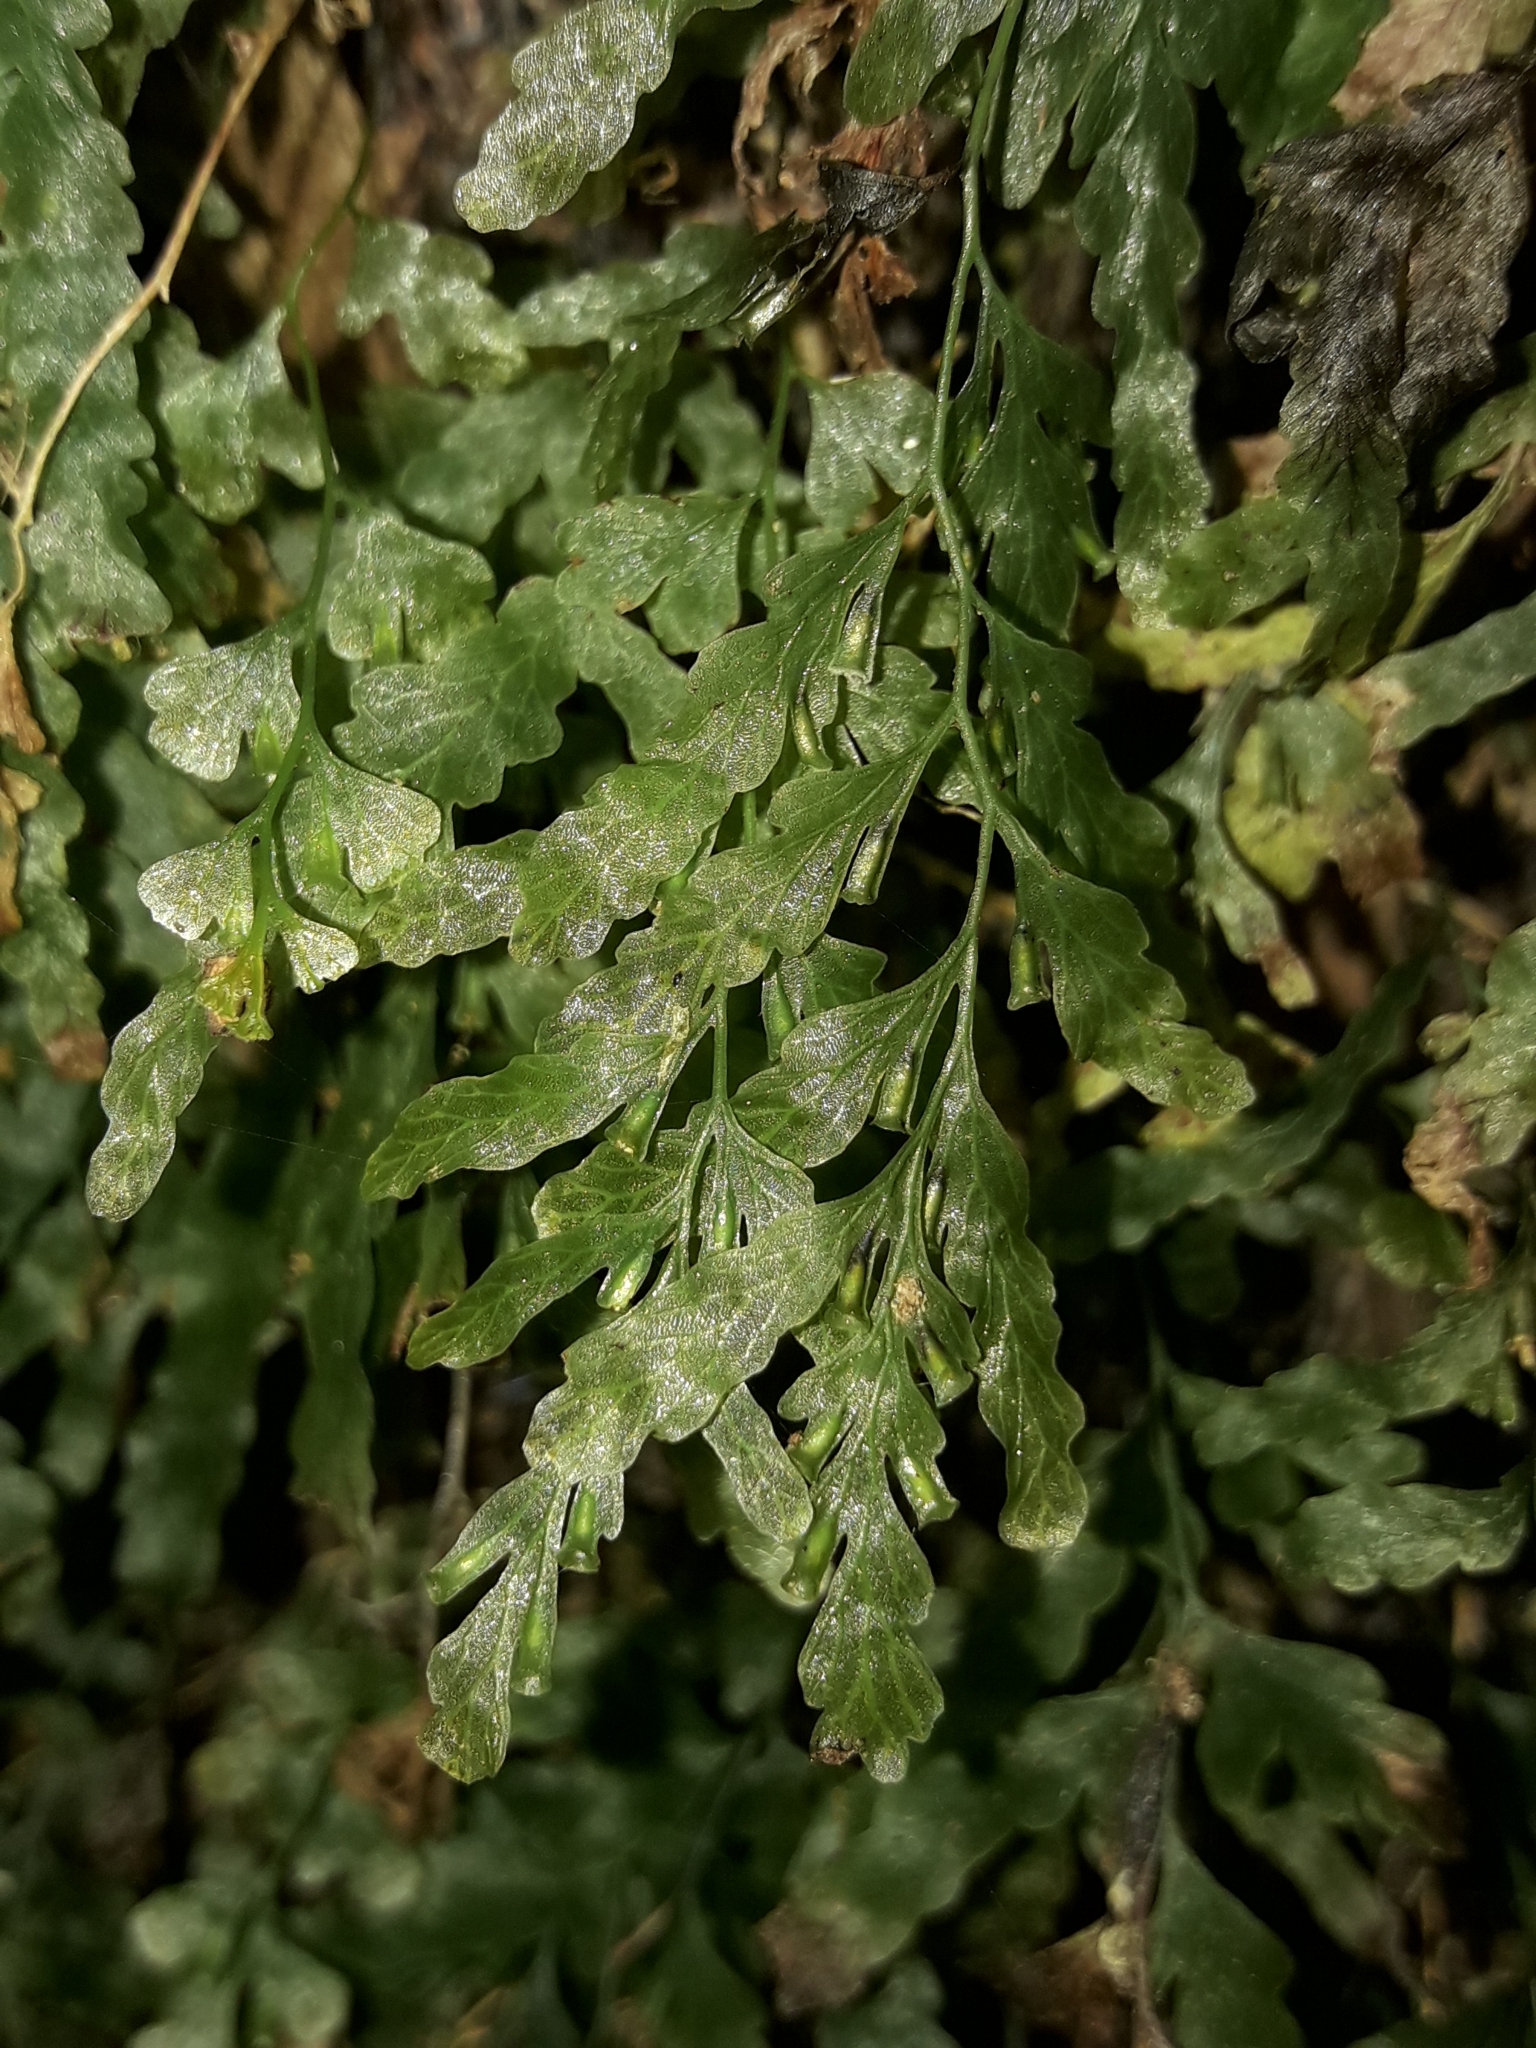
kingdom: Plantae
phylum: Tracheophyta
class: Polypodiopsida
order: Hymenophyllales
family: Hymenophyllaceae
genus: Polyphlebium
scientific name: Polyphlebium venosum
